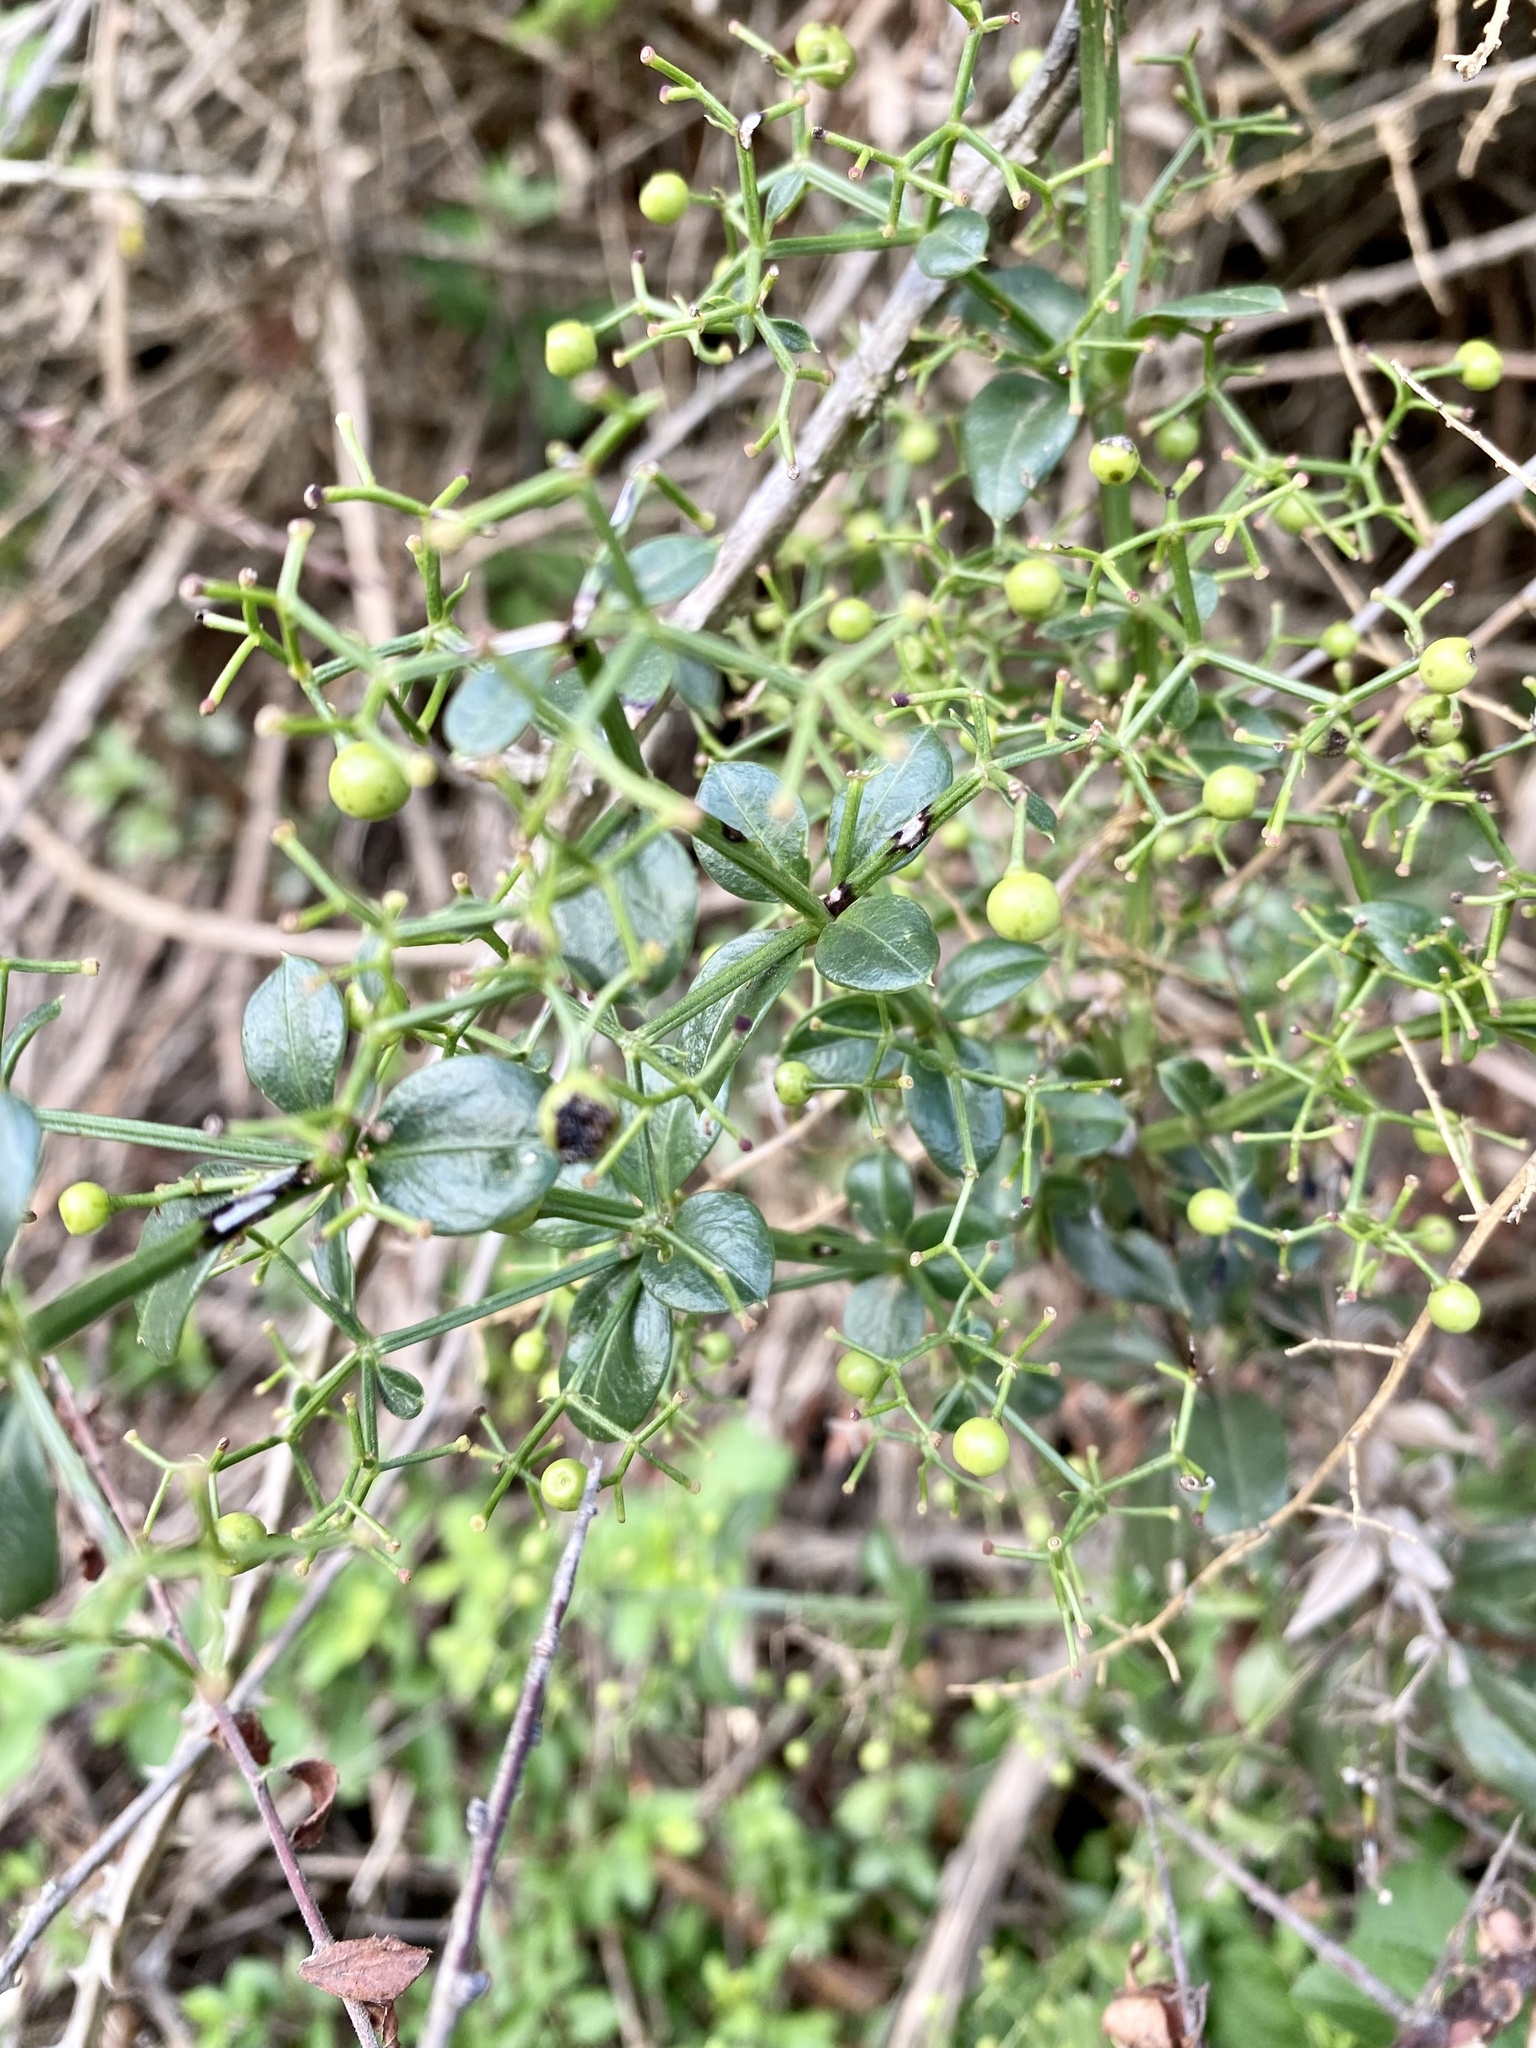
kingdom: Plantae
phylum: Tracheophyta
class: Magnoliopsida
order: Gentianales
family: Rubiaceae
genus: Rubia
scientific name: Rubia peregrina
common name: Wild madder
